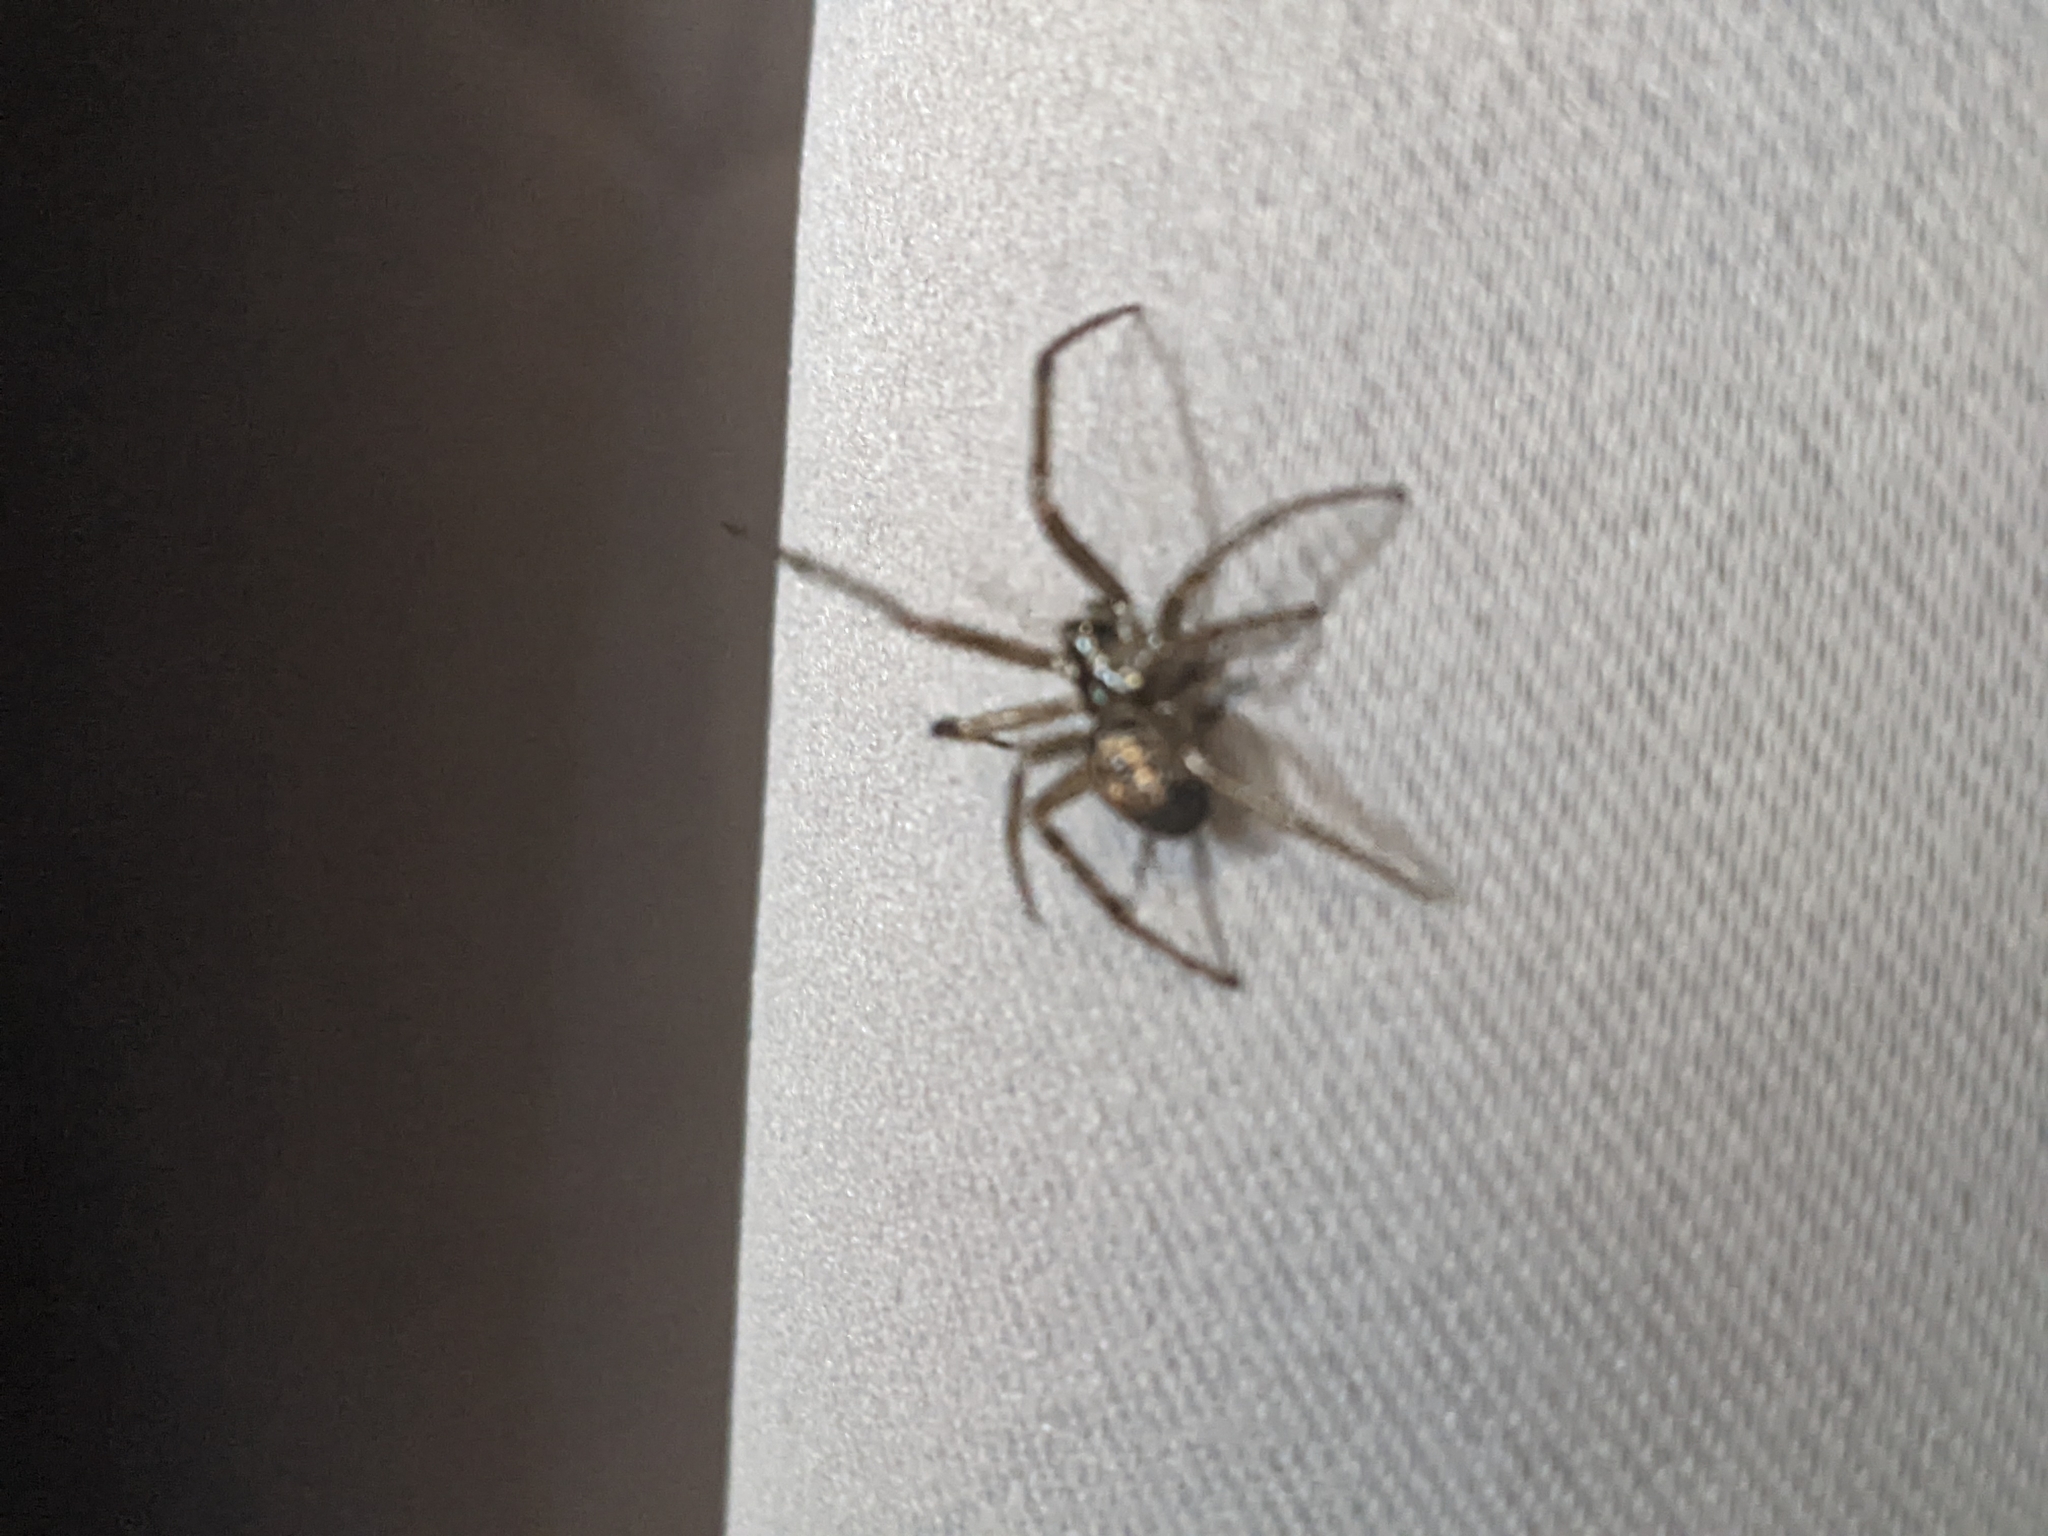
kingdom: Animalia
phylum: Arthropoda
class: Arachnida
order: Araneae
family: Theridiidae
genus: Steatoda
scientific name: Steatoda nobilis
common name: Cobweb weaver
